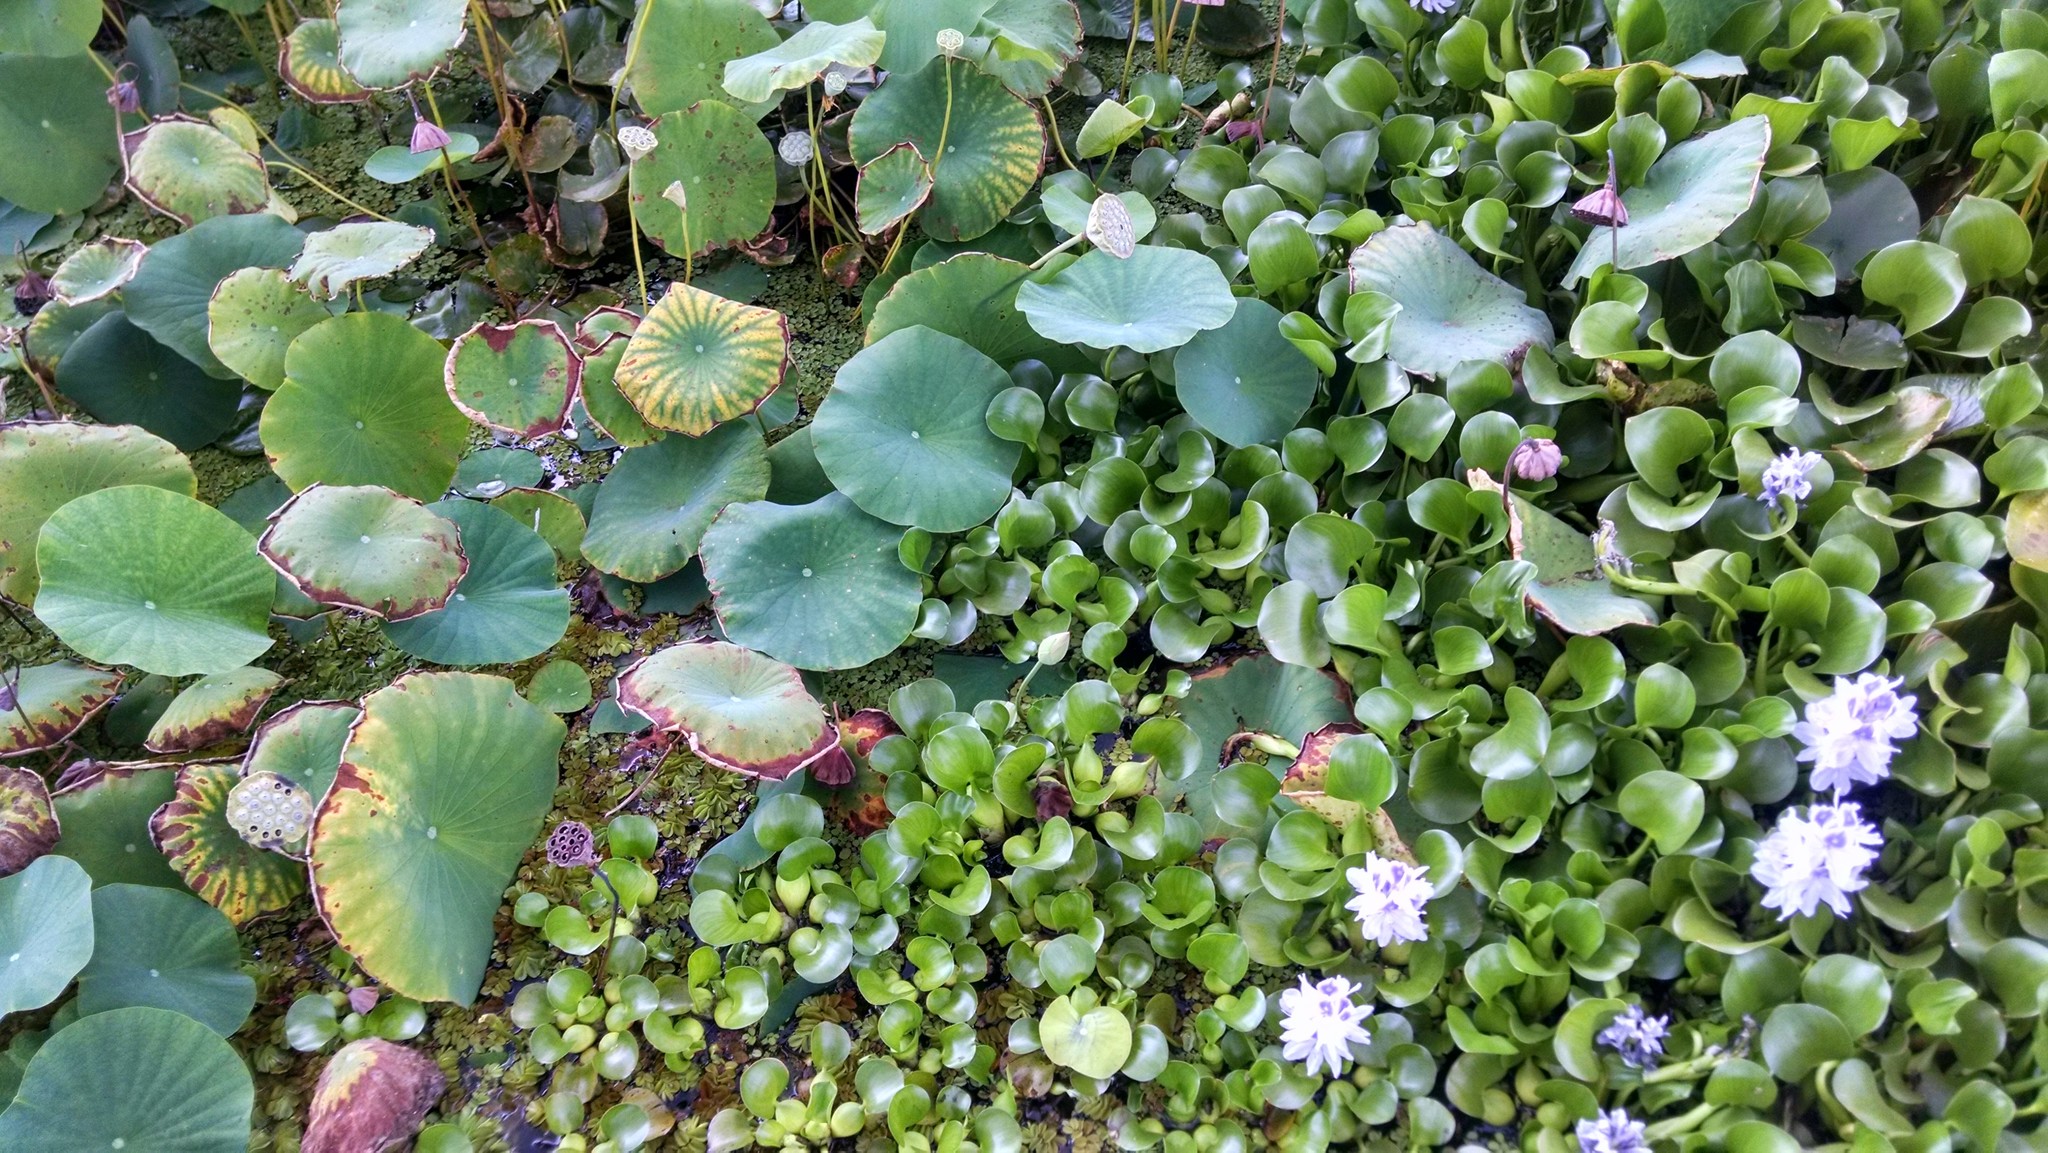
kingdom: Plantae
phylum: Tracheophyta
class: Liliopsida
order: Commelinales
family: Pontederiaceae
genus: Pontederia
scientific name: Pontederia crassipes
